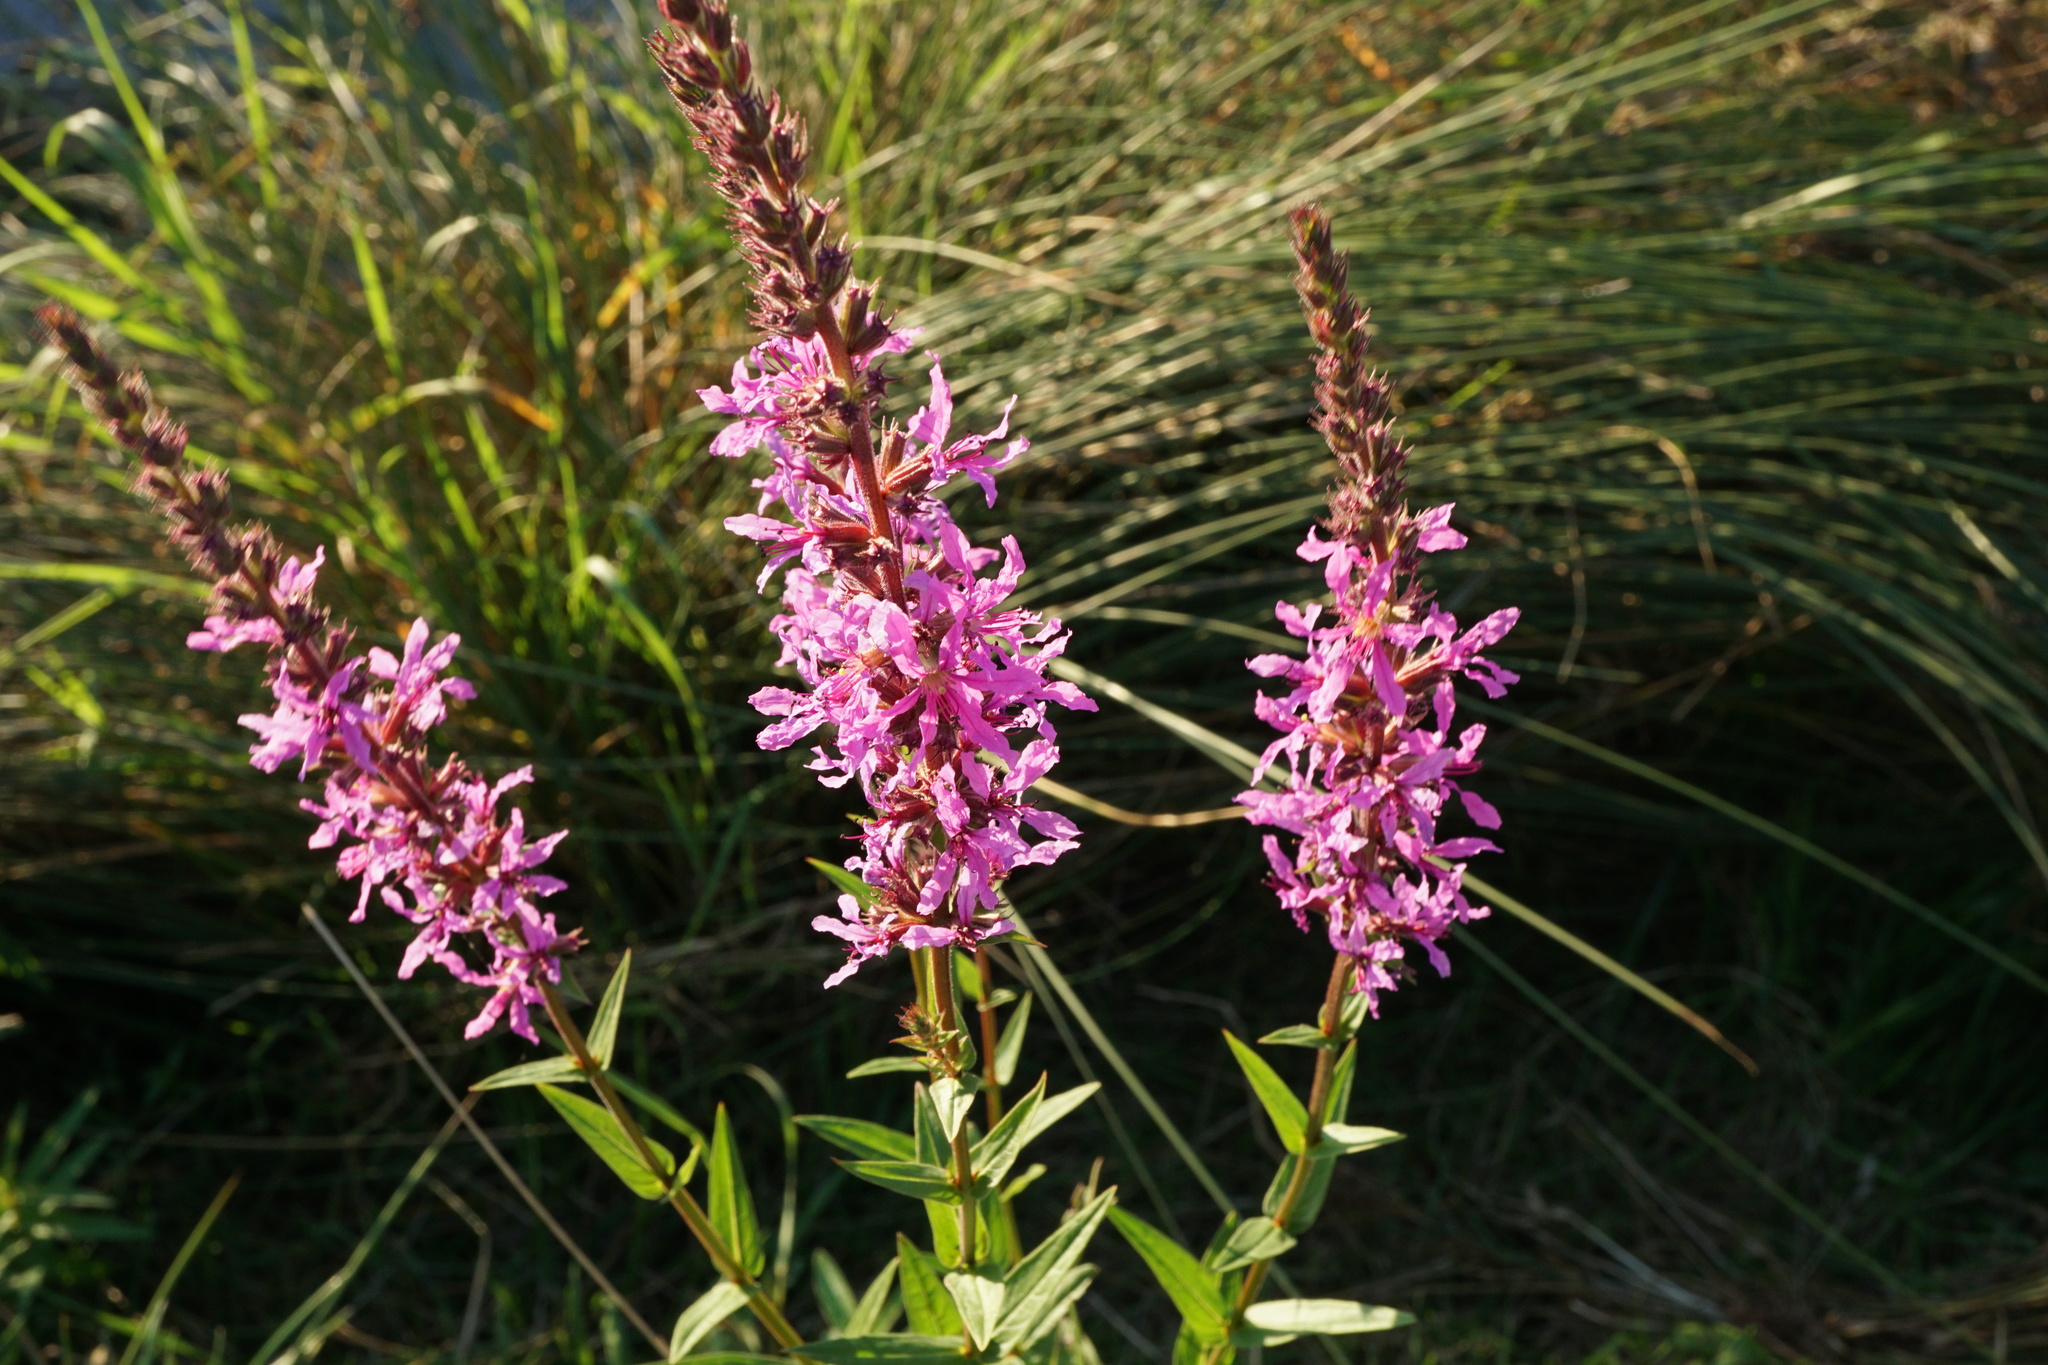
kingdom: Plantae
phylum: Tracheophyta
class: Magnoliopsida
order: Myrtales
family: Lythraceae
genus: Lythrum
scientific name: Lythrum salicaria
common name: Purple loosestrife
